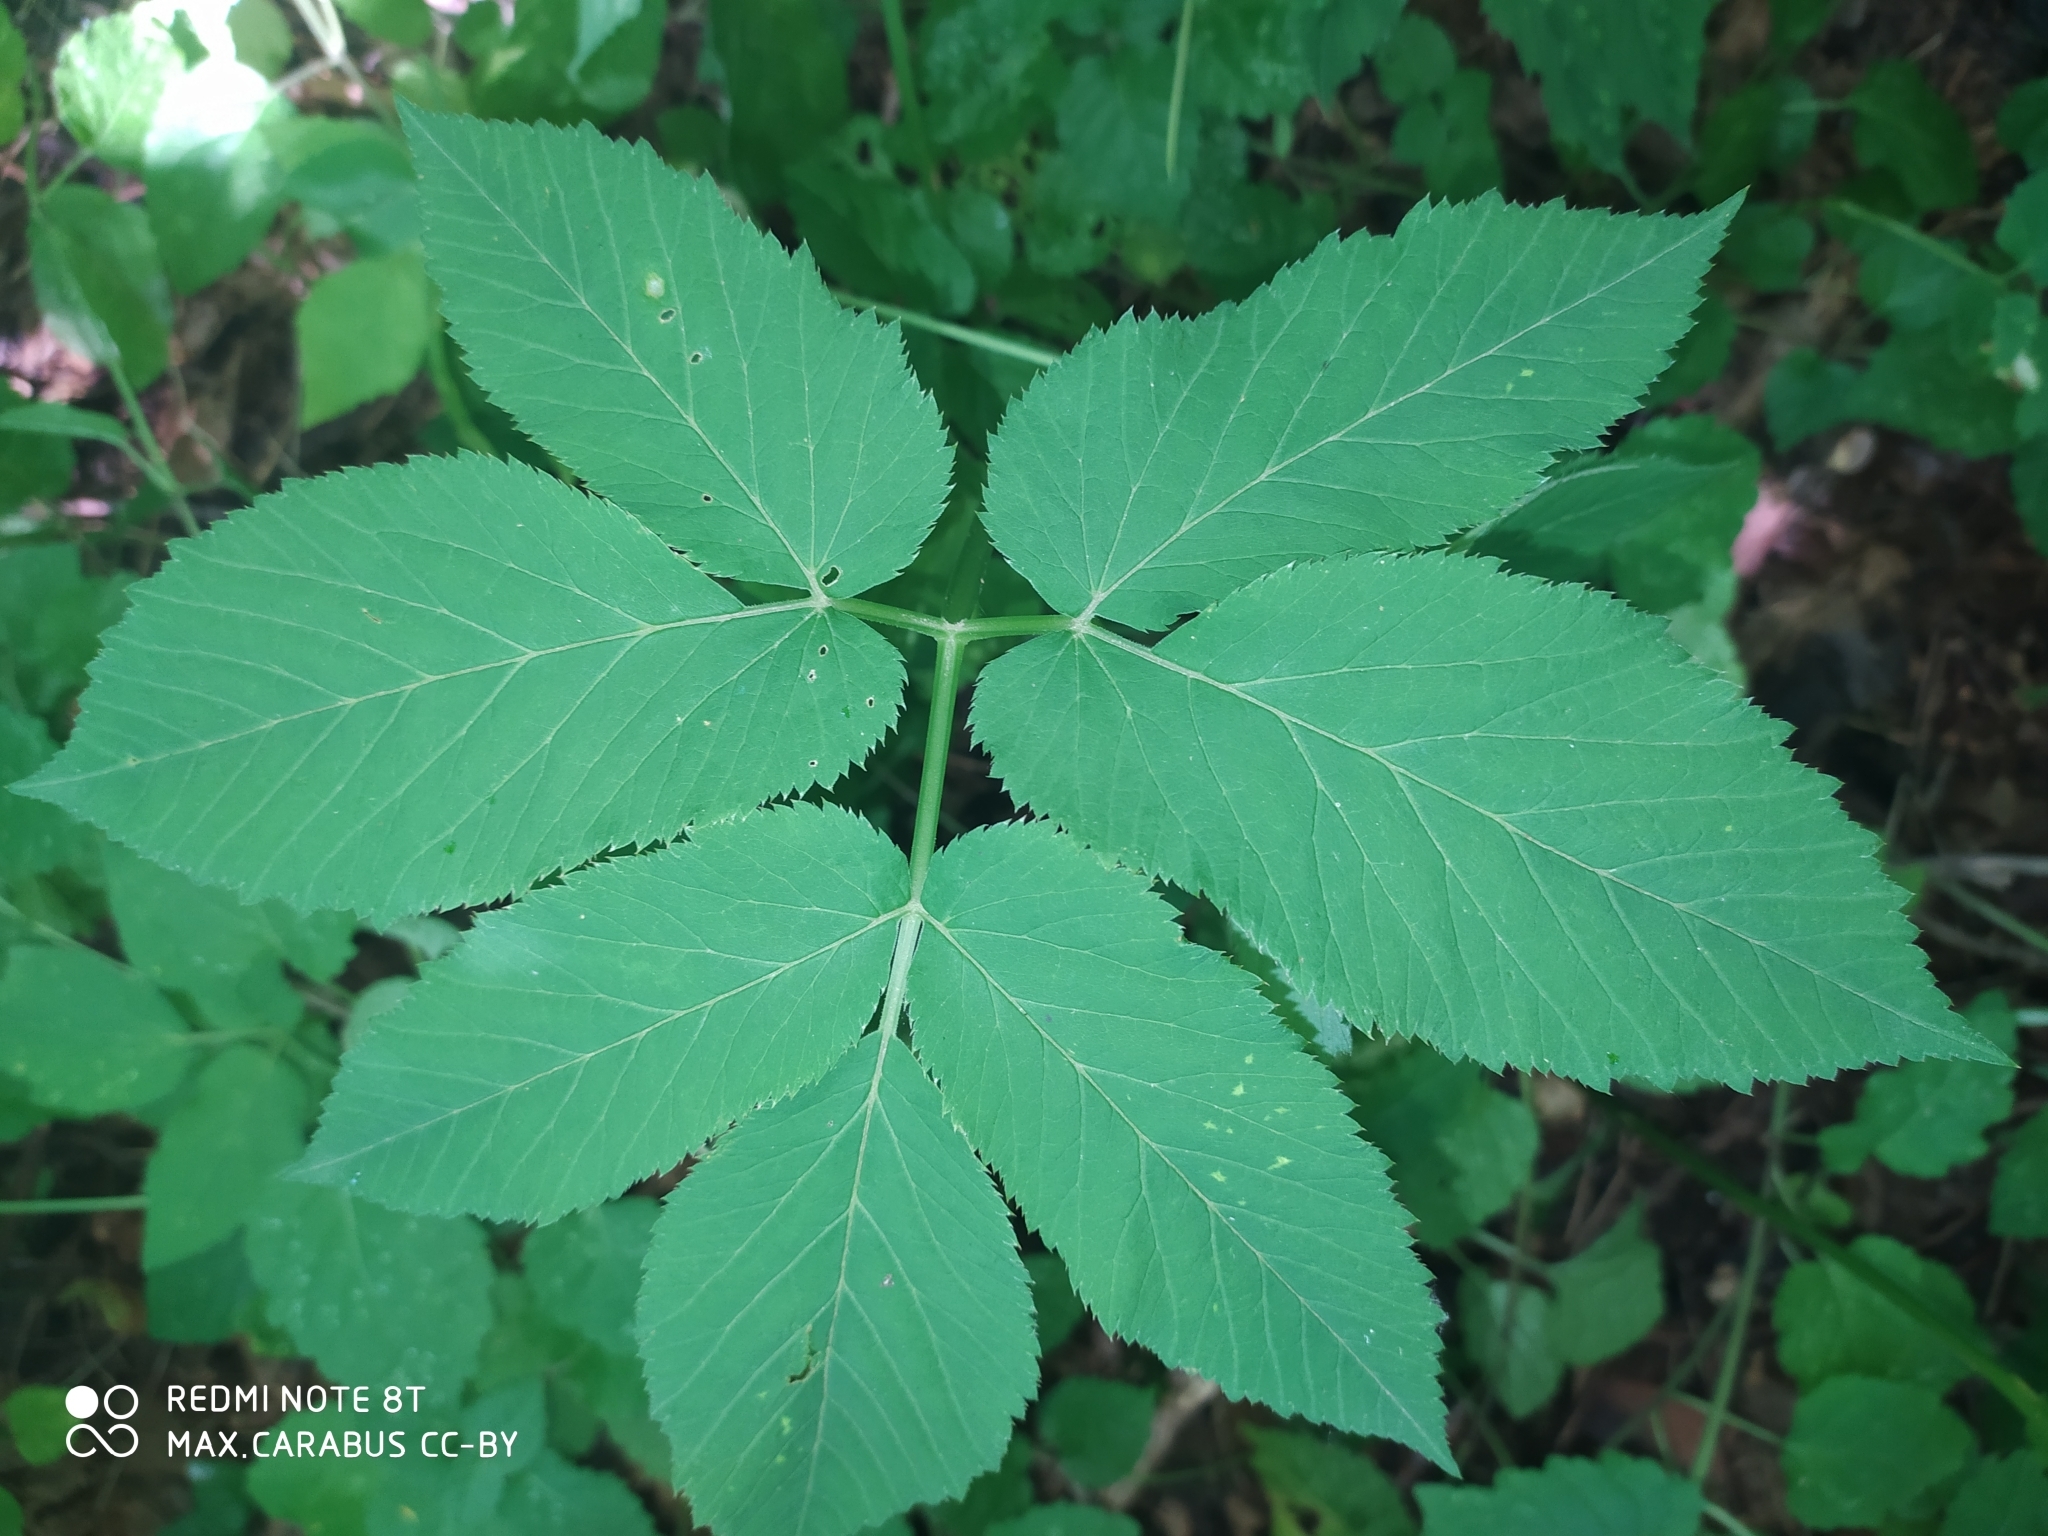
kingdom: Plantae
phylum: Tracheophyta
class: Magnoliopsida
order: Apiales
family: Apiaceae
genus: Aegopodium
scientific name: Aegopodium podagraria
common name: Ground-elder
